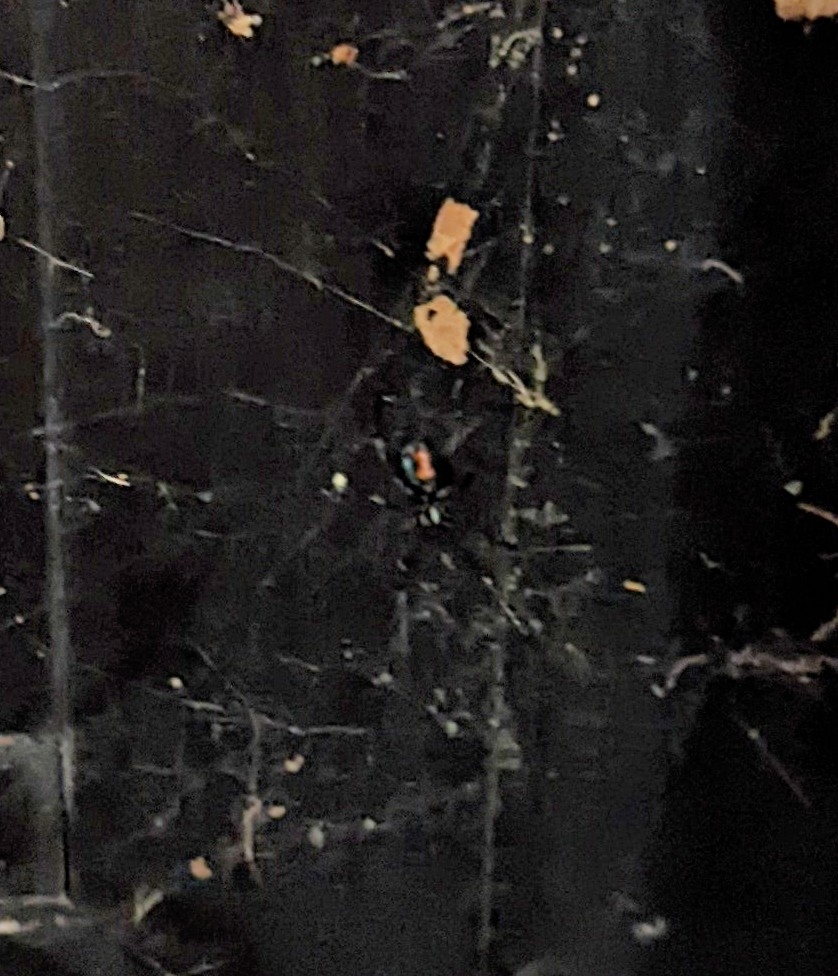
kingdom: Animalia
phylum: Arthropoda
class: Arachnida
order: Araneae
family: Theridiidae
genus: Latrodectus
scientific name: Latrodectus hesperus
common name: Western black widow
